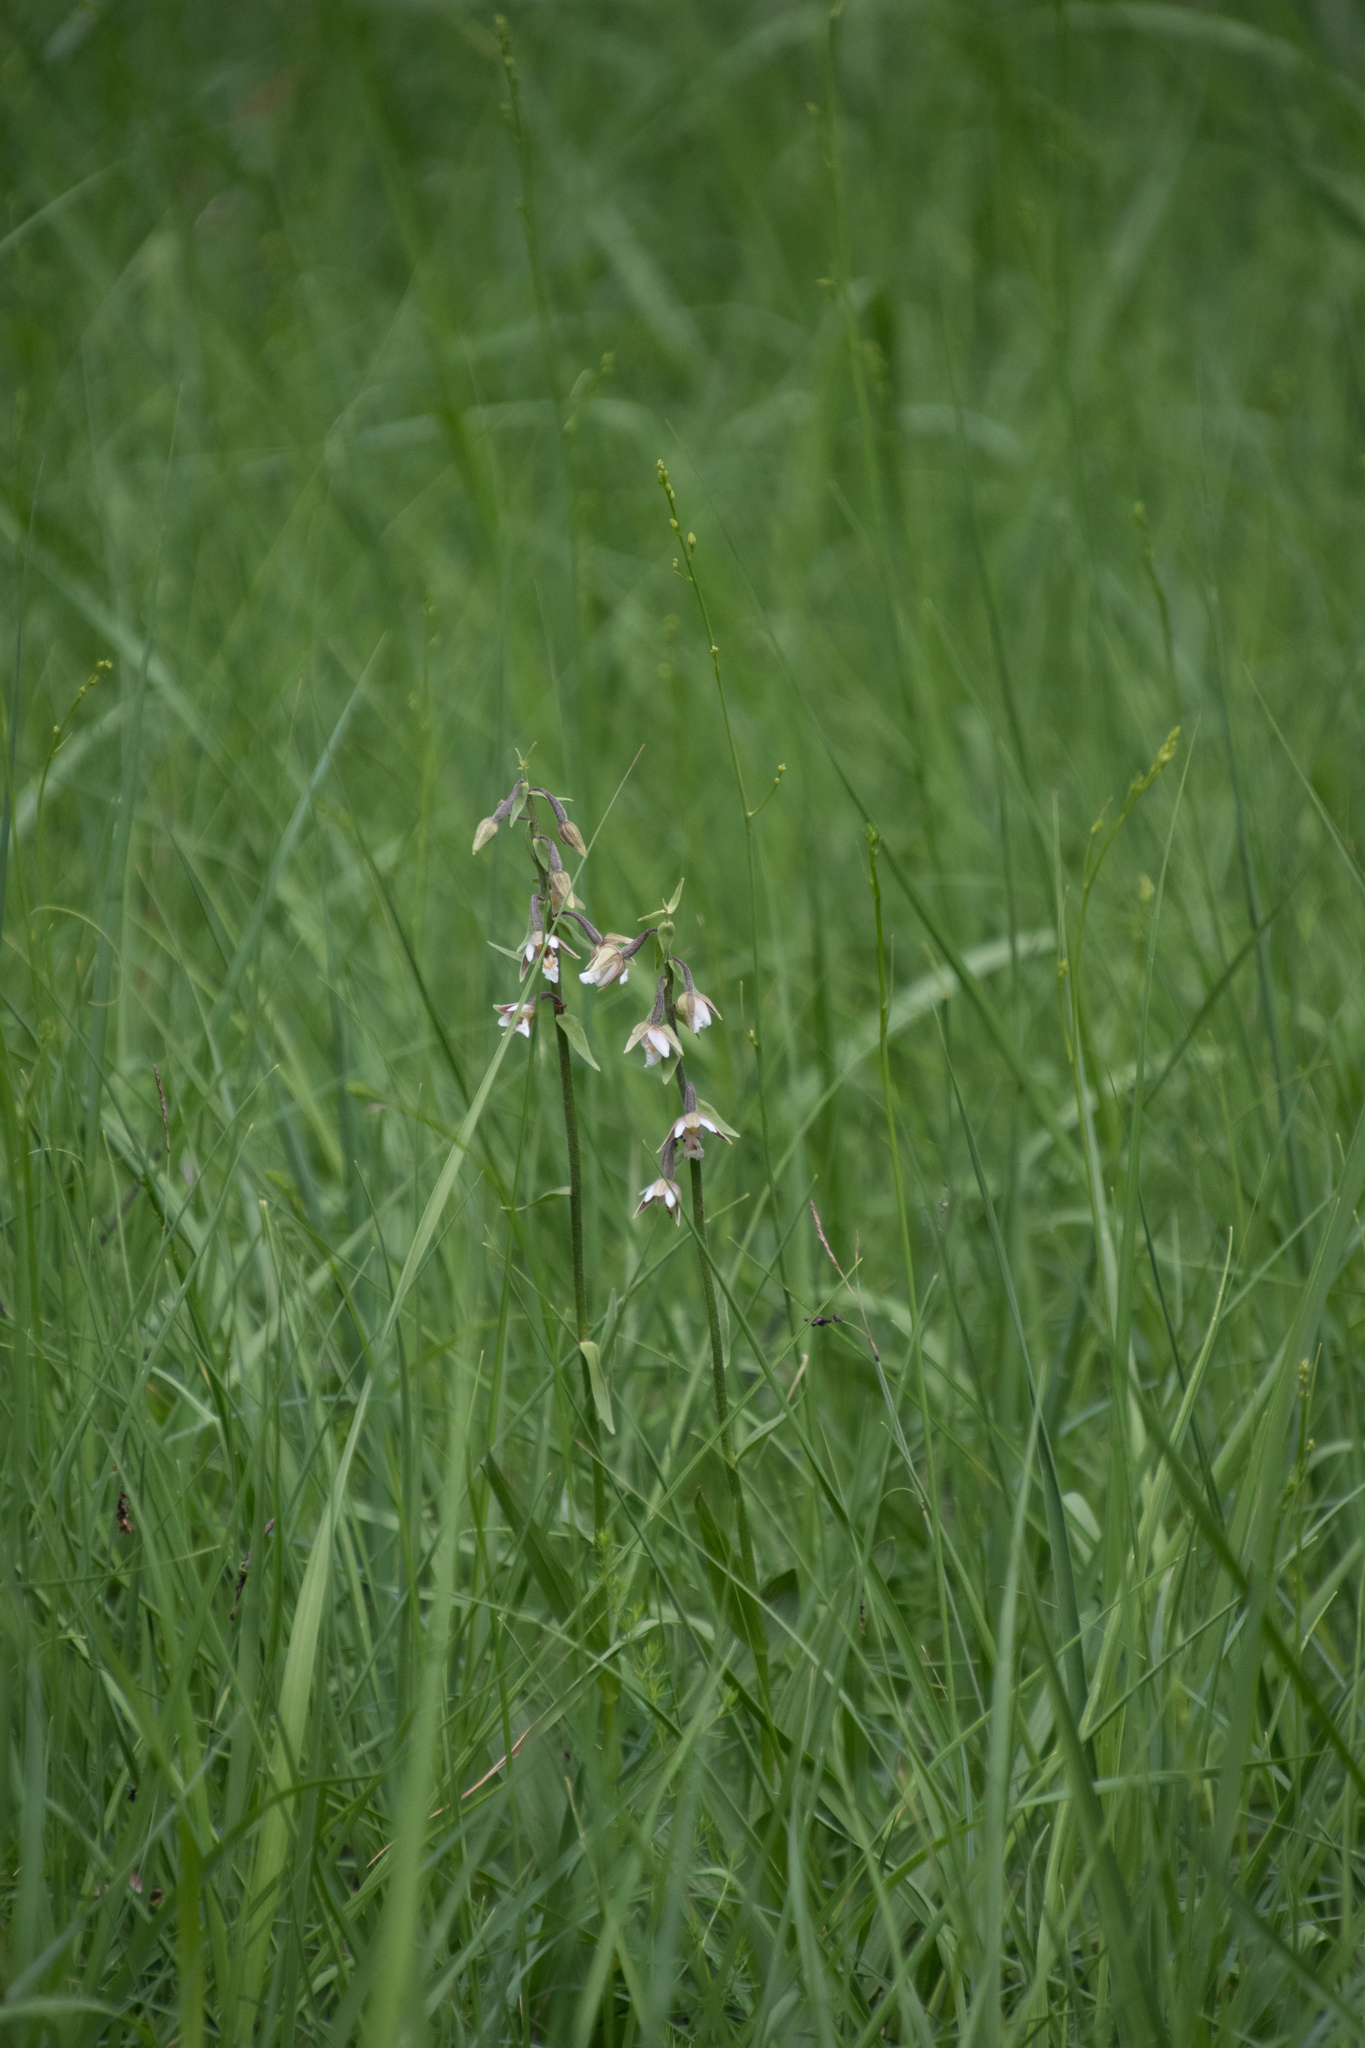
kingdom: Plantae
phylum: Tracheophyta
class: Liliopsida
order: Asparagales
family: Orchidaceae
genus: Epipactis
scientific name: Epipactis palustris
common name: Marsh helleborine
